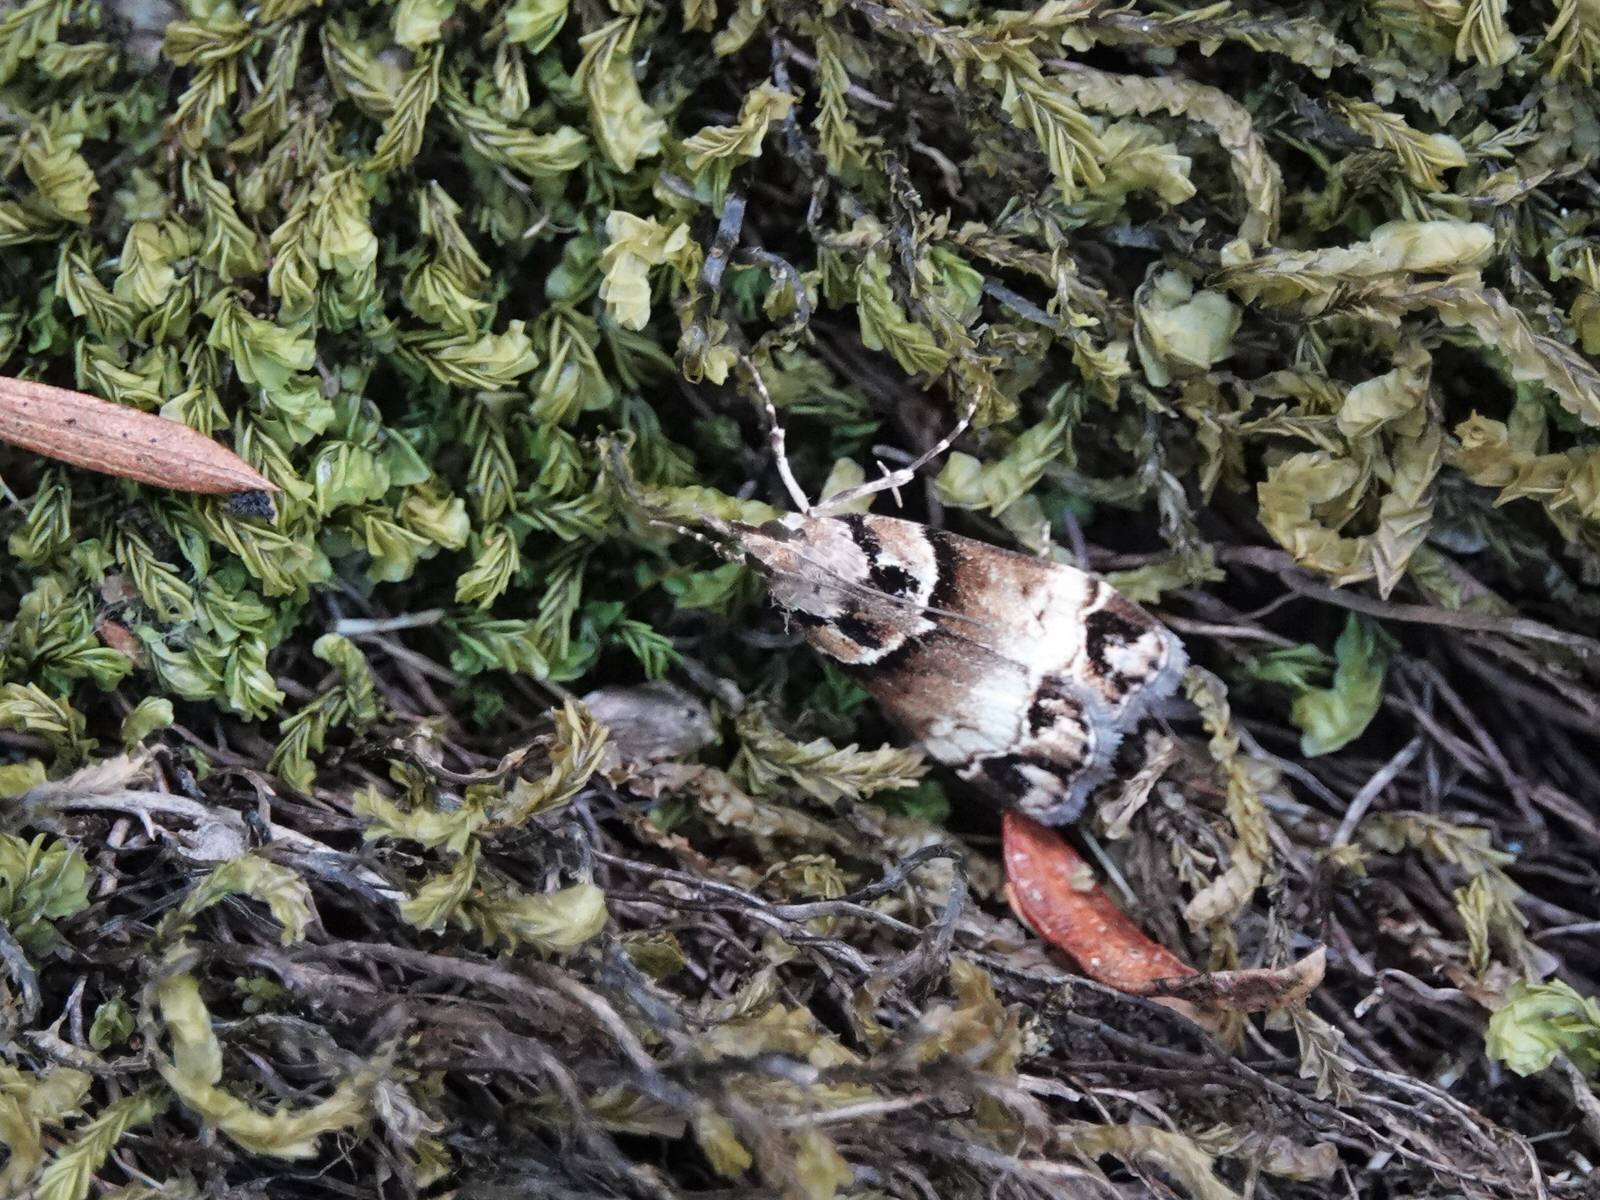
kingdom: Animalia
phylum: Arthropoda
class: Insecta
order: Lepidoptera
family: Crambidae
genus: Eudonia
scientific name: Eudonia periphanes
